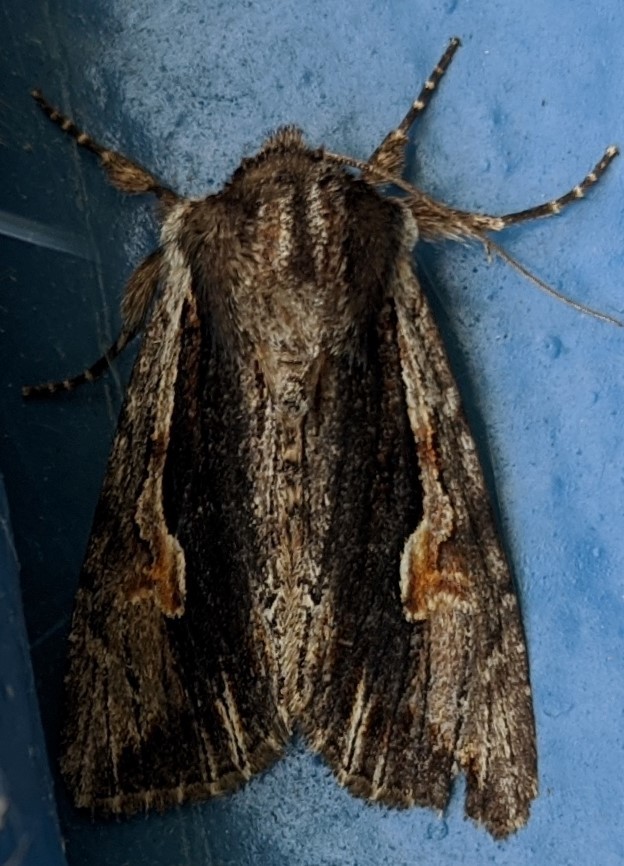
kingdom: Animalia
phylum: Arthropoda
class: Insecta
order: Lepidoptera
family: Noctuidae
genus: Achatia
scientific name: Achatia evicta
